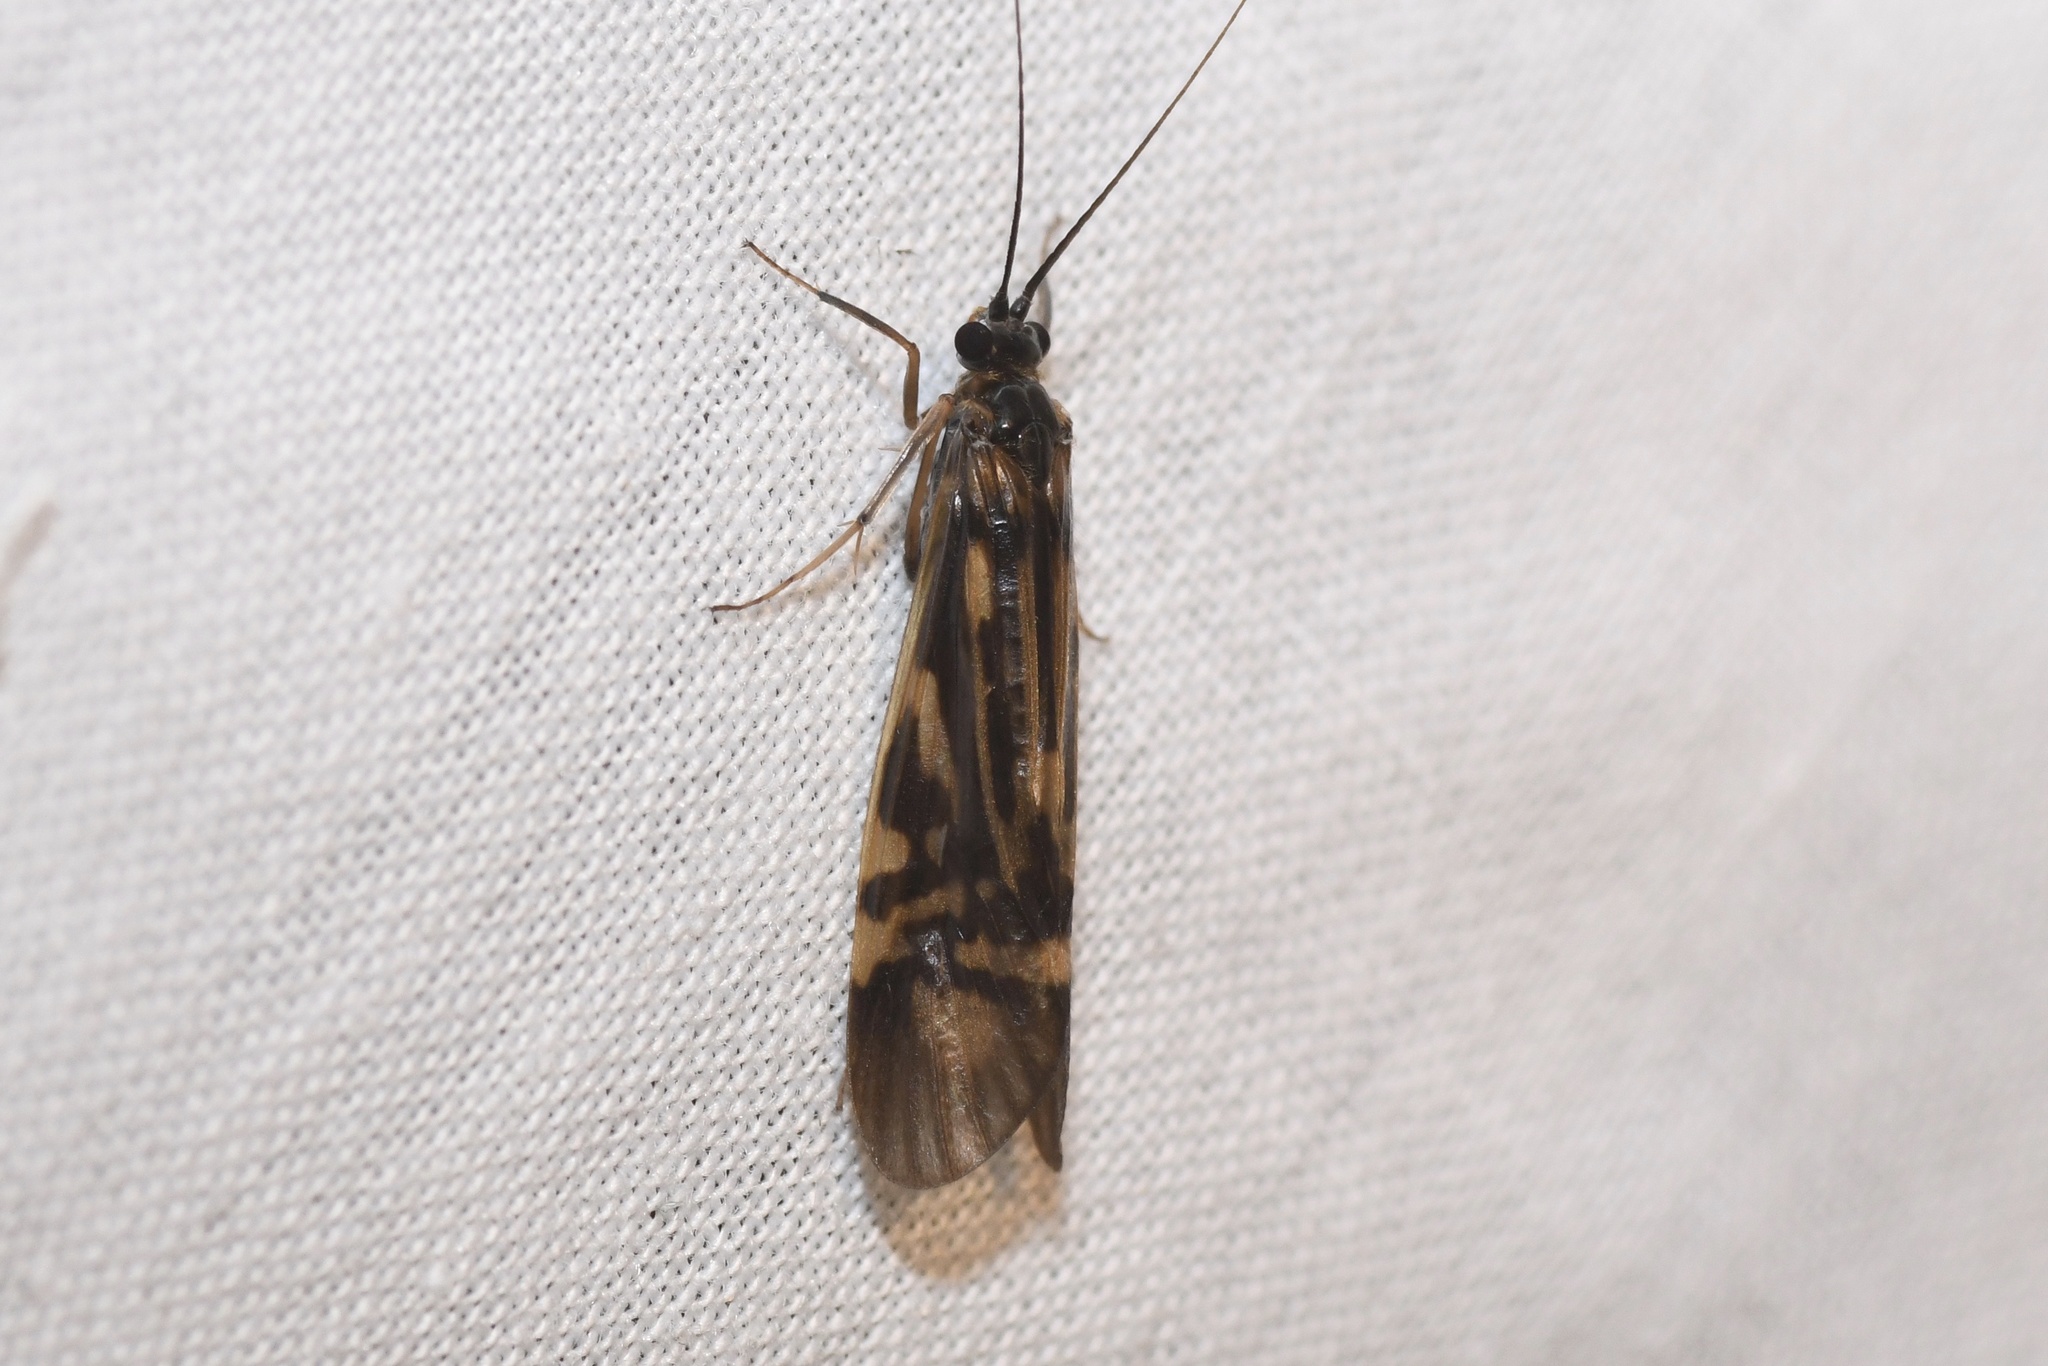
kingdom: Animalia
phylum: Arthropoda
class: Insecta
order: Trichoptera
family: Hydropsychidae
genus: Macrostemum
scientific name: Macrostemum zebratum
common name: Zebra caddisfly
